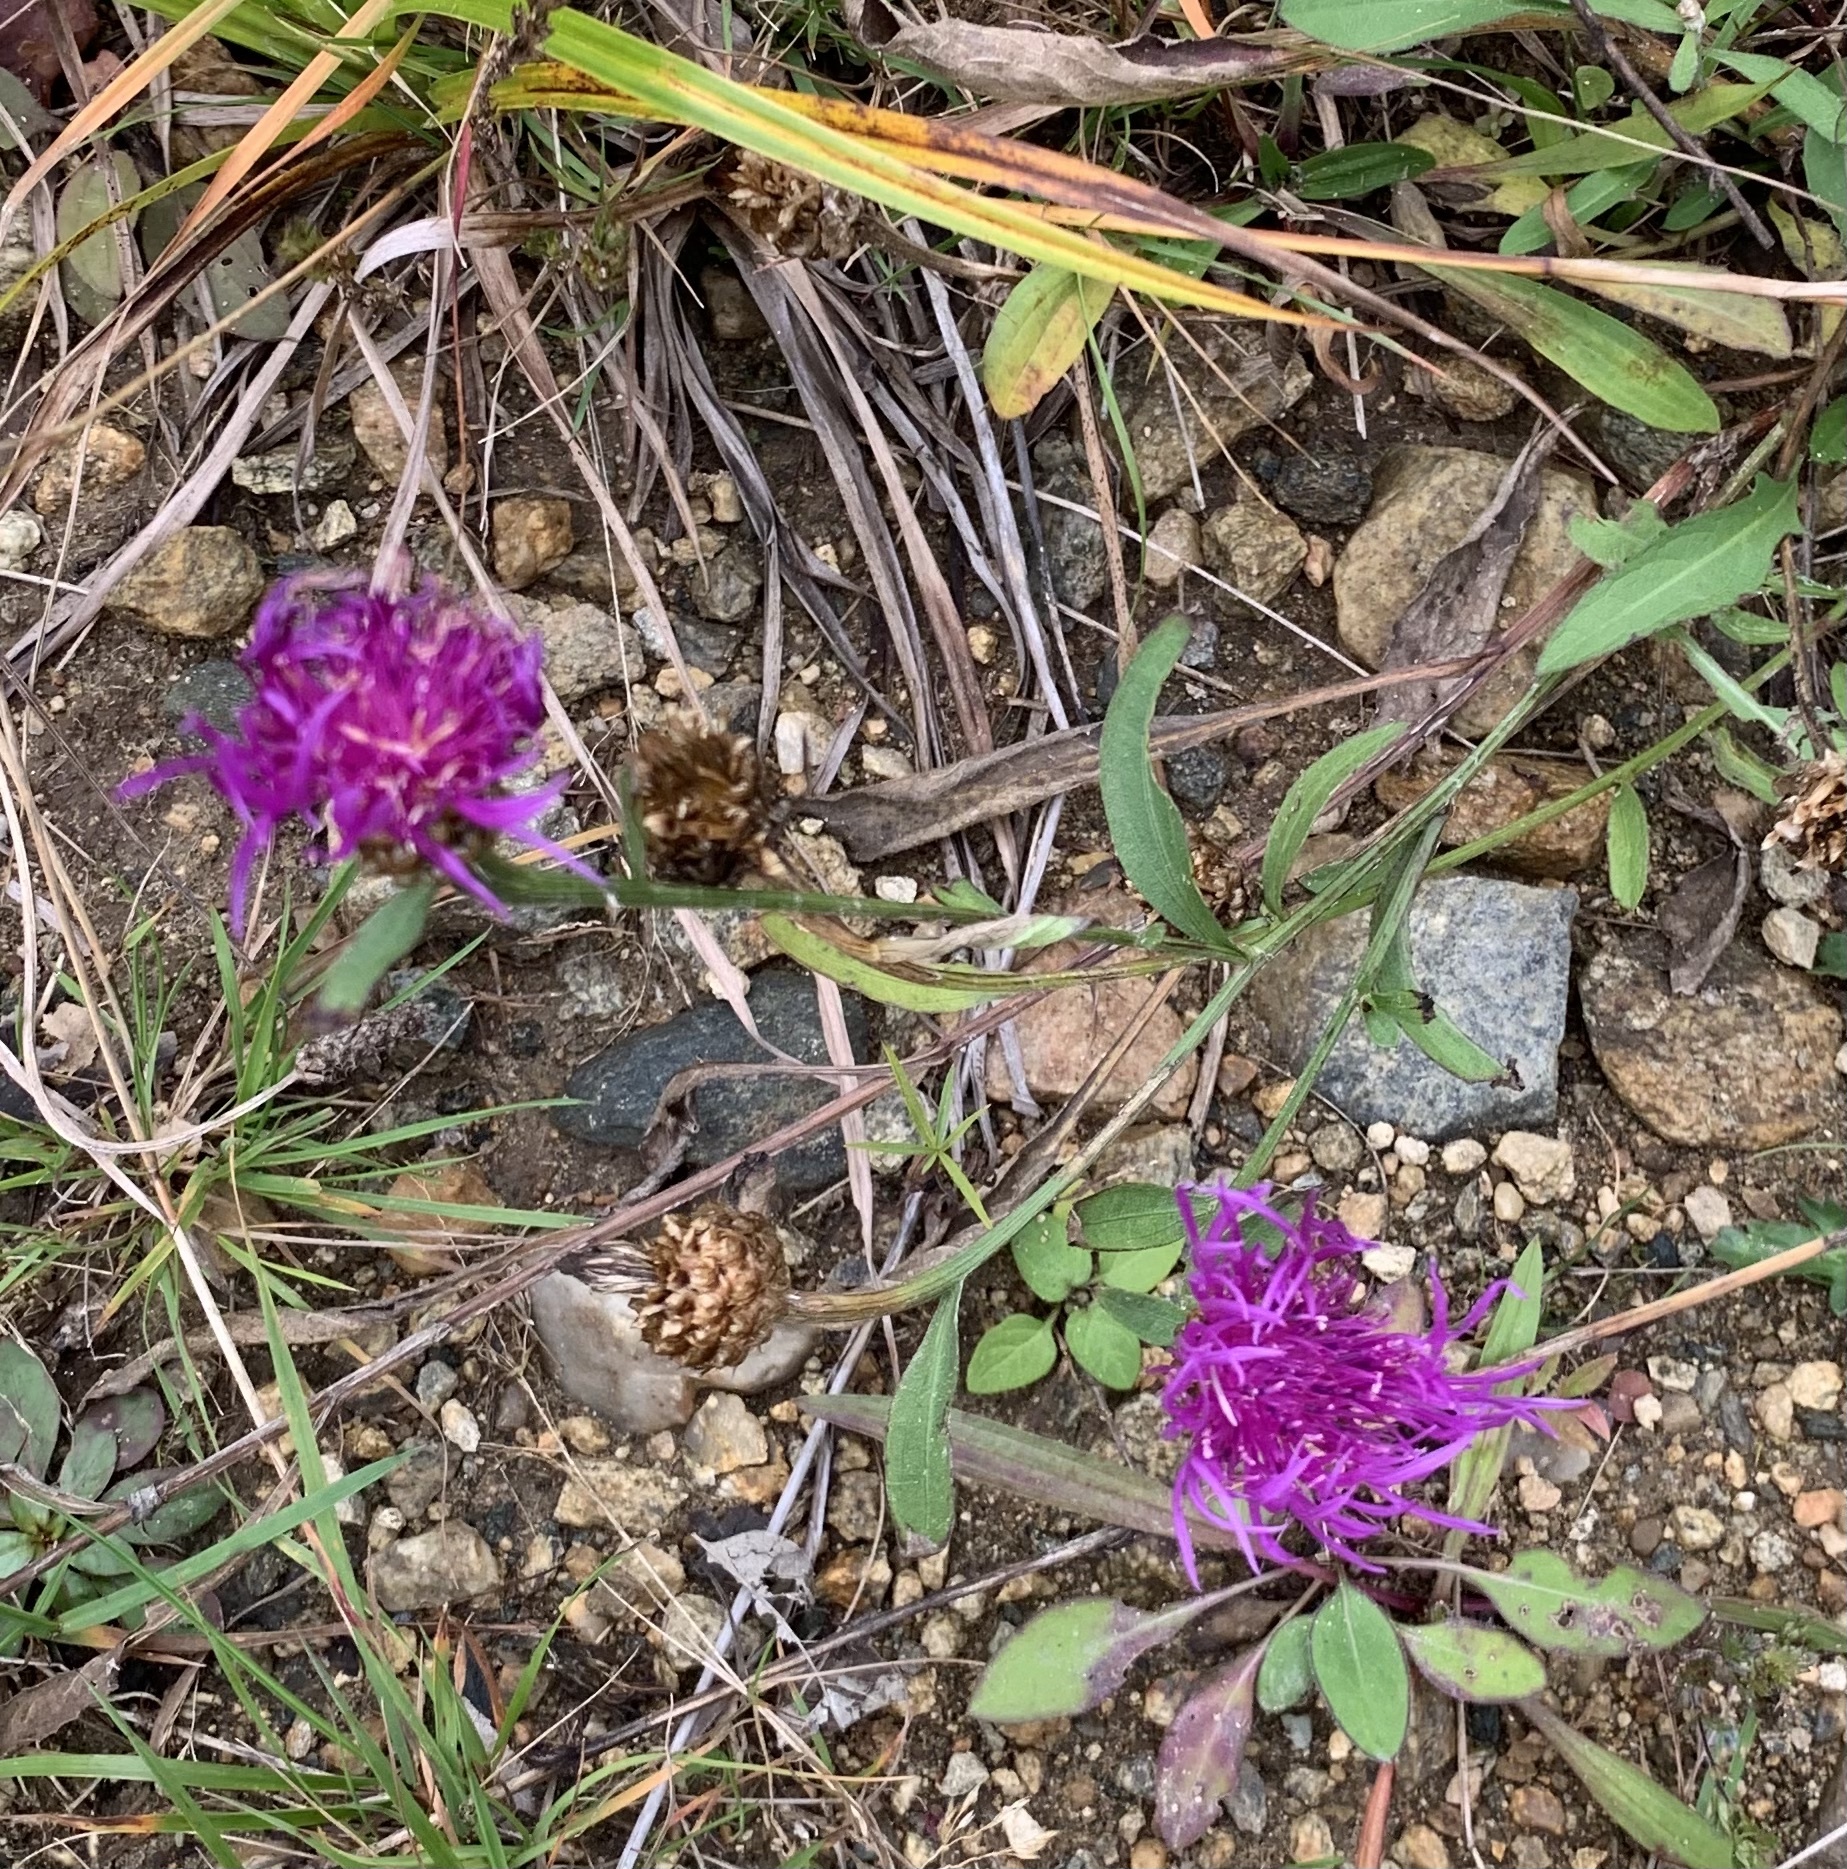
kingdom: Plantae
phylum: Tracheophyta
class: Magnoliopsida
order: Asterales
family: Asteraceae
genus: Centaurea
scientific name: Centaurea jacea
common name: Brown knapweed
